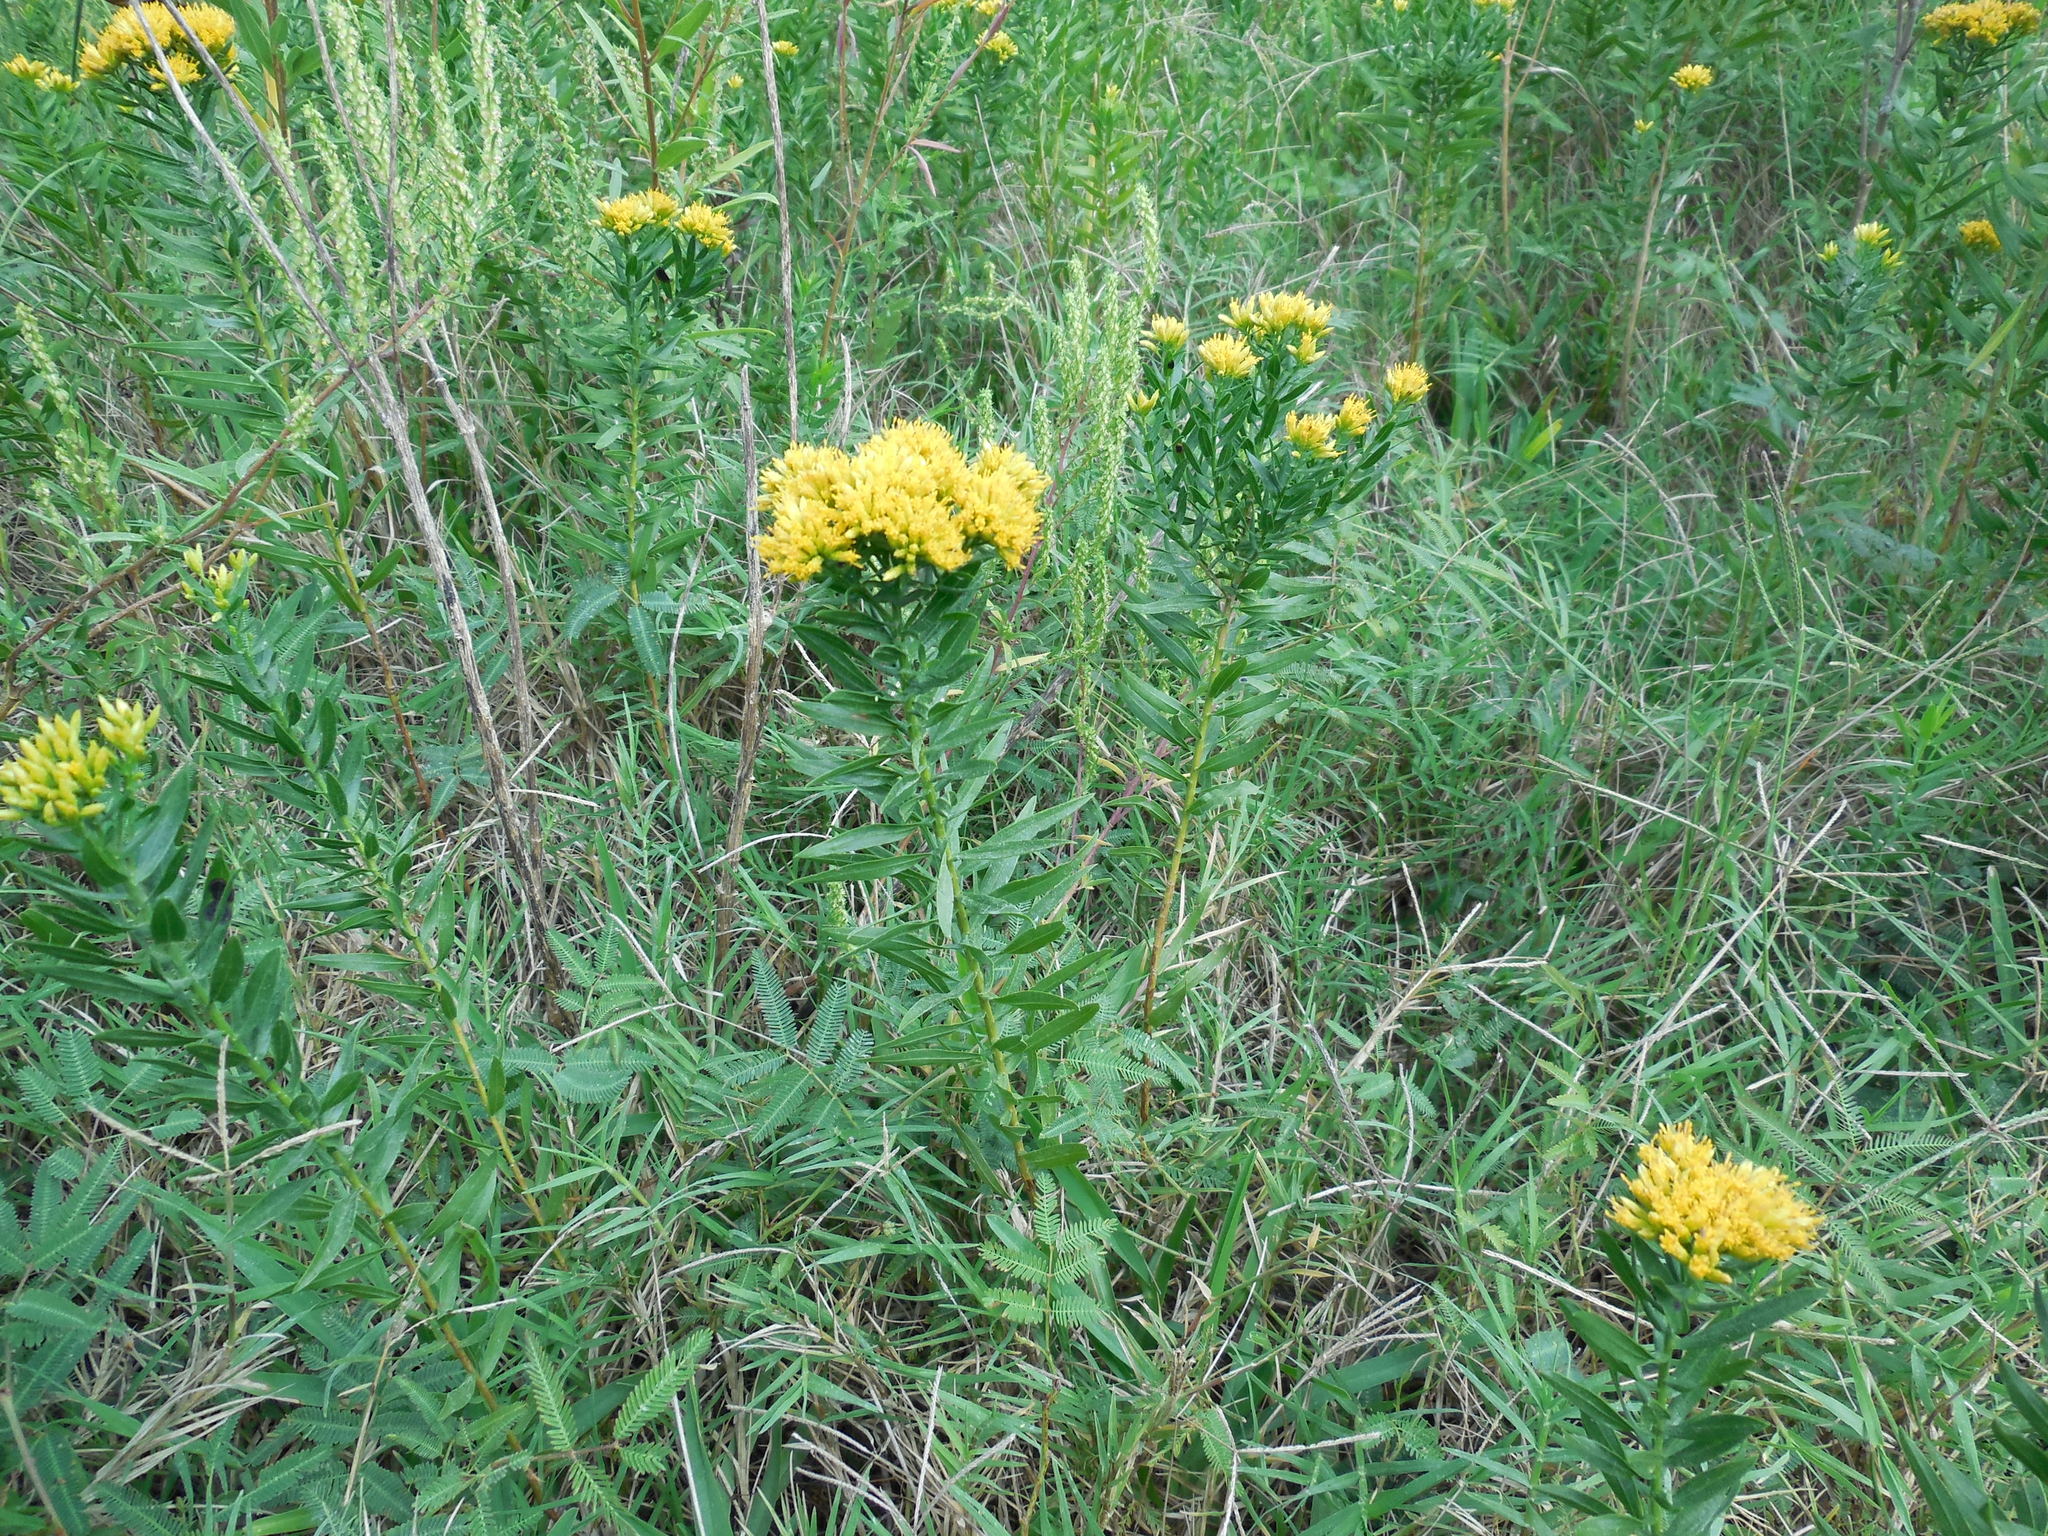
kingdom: Plantae
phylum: Tracheophyta
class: Magnoliopsida
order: Asterales
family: Asteraceae
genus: Euthamia
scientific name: Euthamia leptocephala
